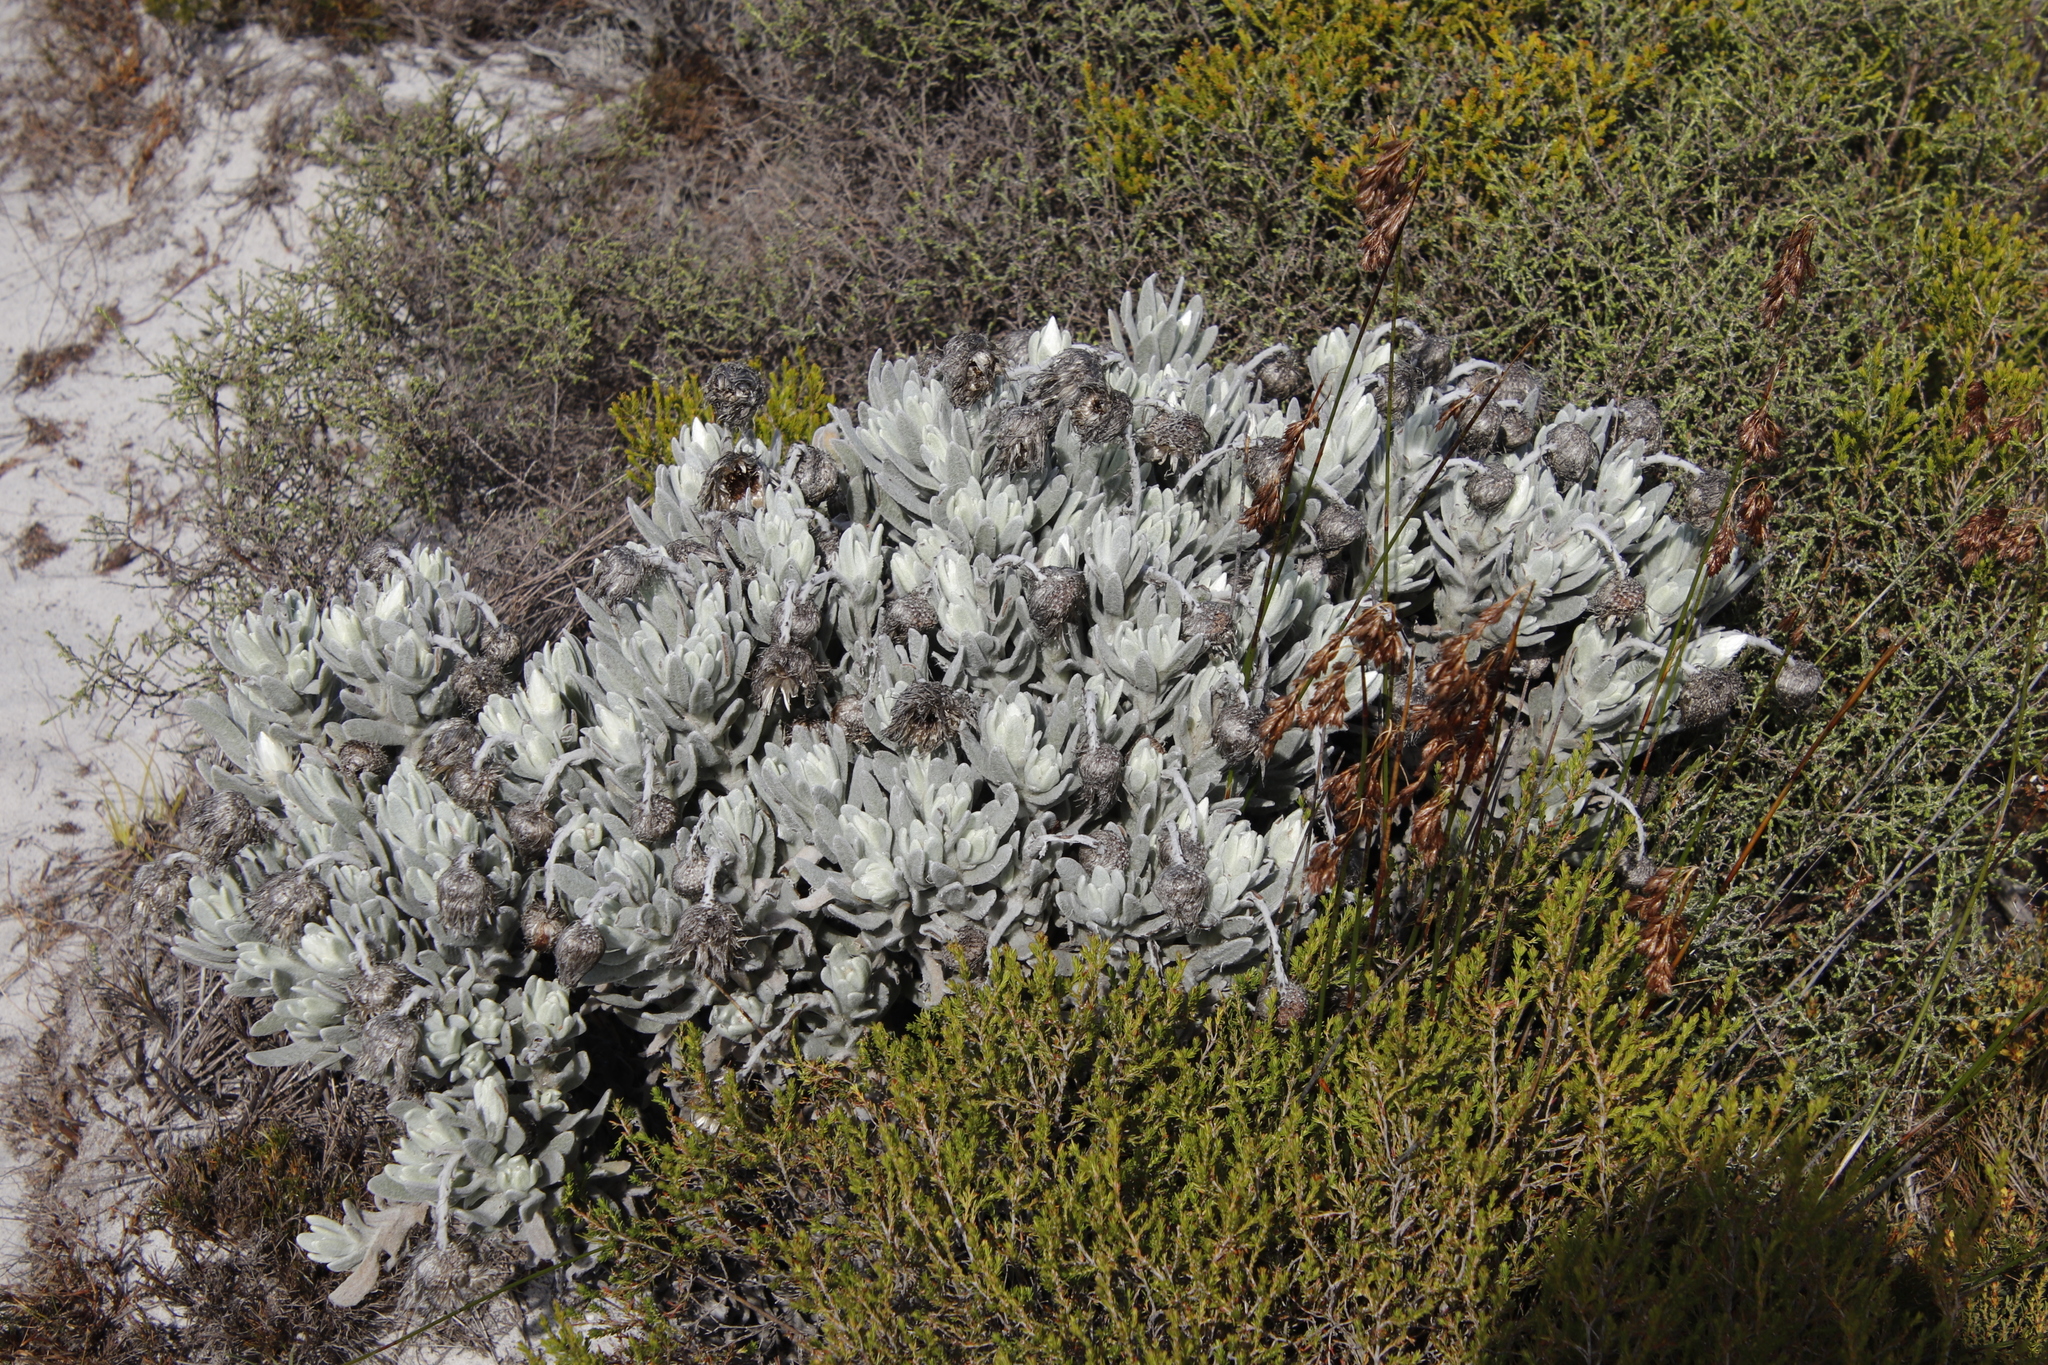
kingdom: Plantae
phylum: Tracheophyta
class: Magnoliopsida
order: Asterales
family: Asteraceae
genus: Syncarpha
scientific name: Syncarpha vestita
